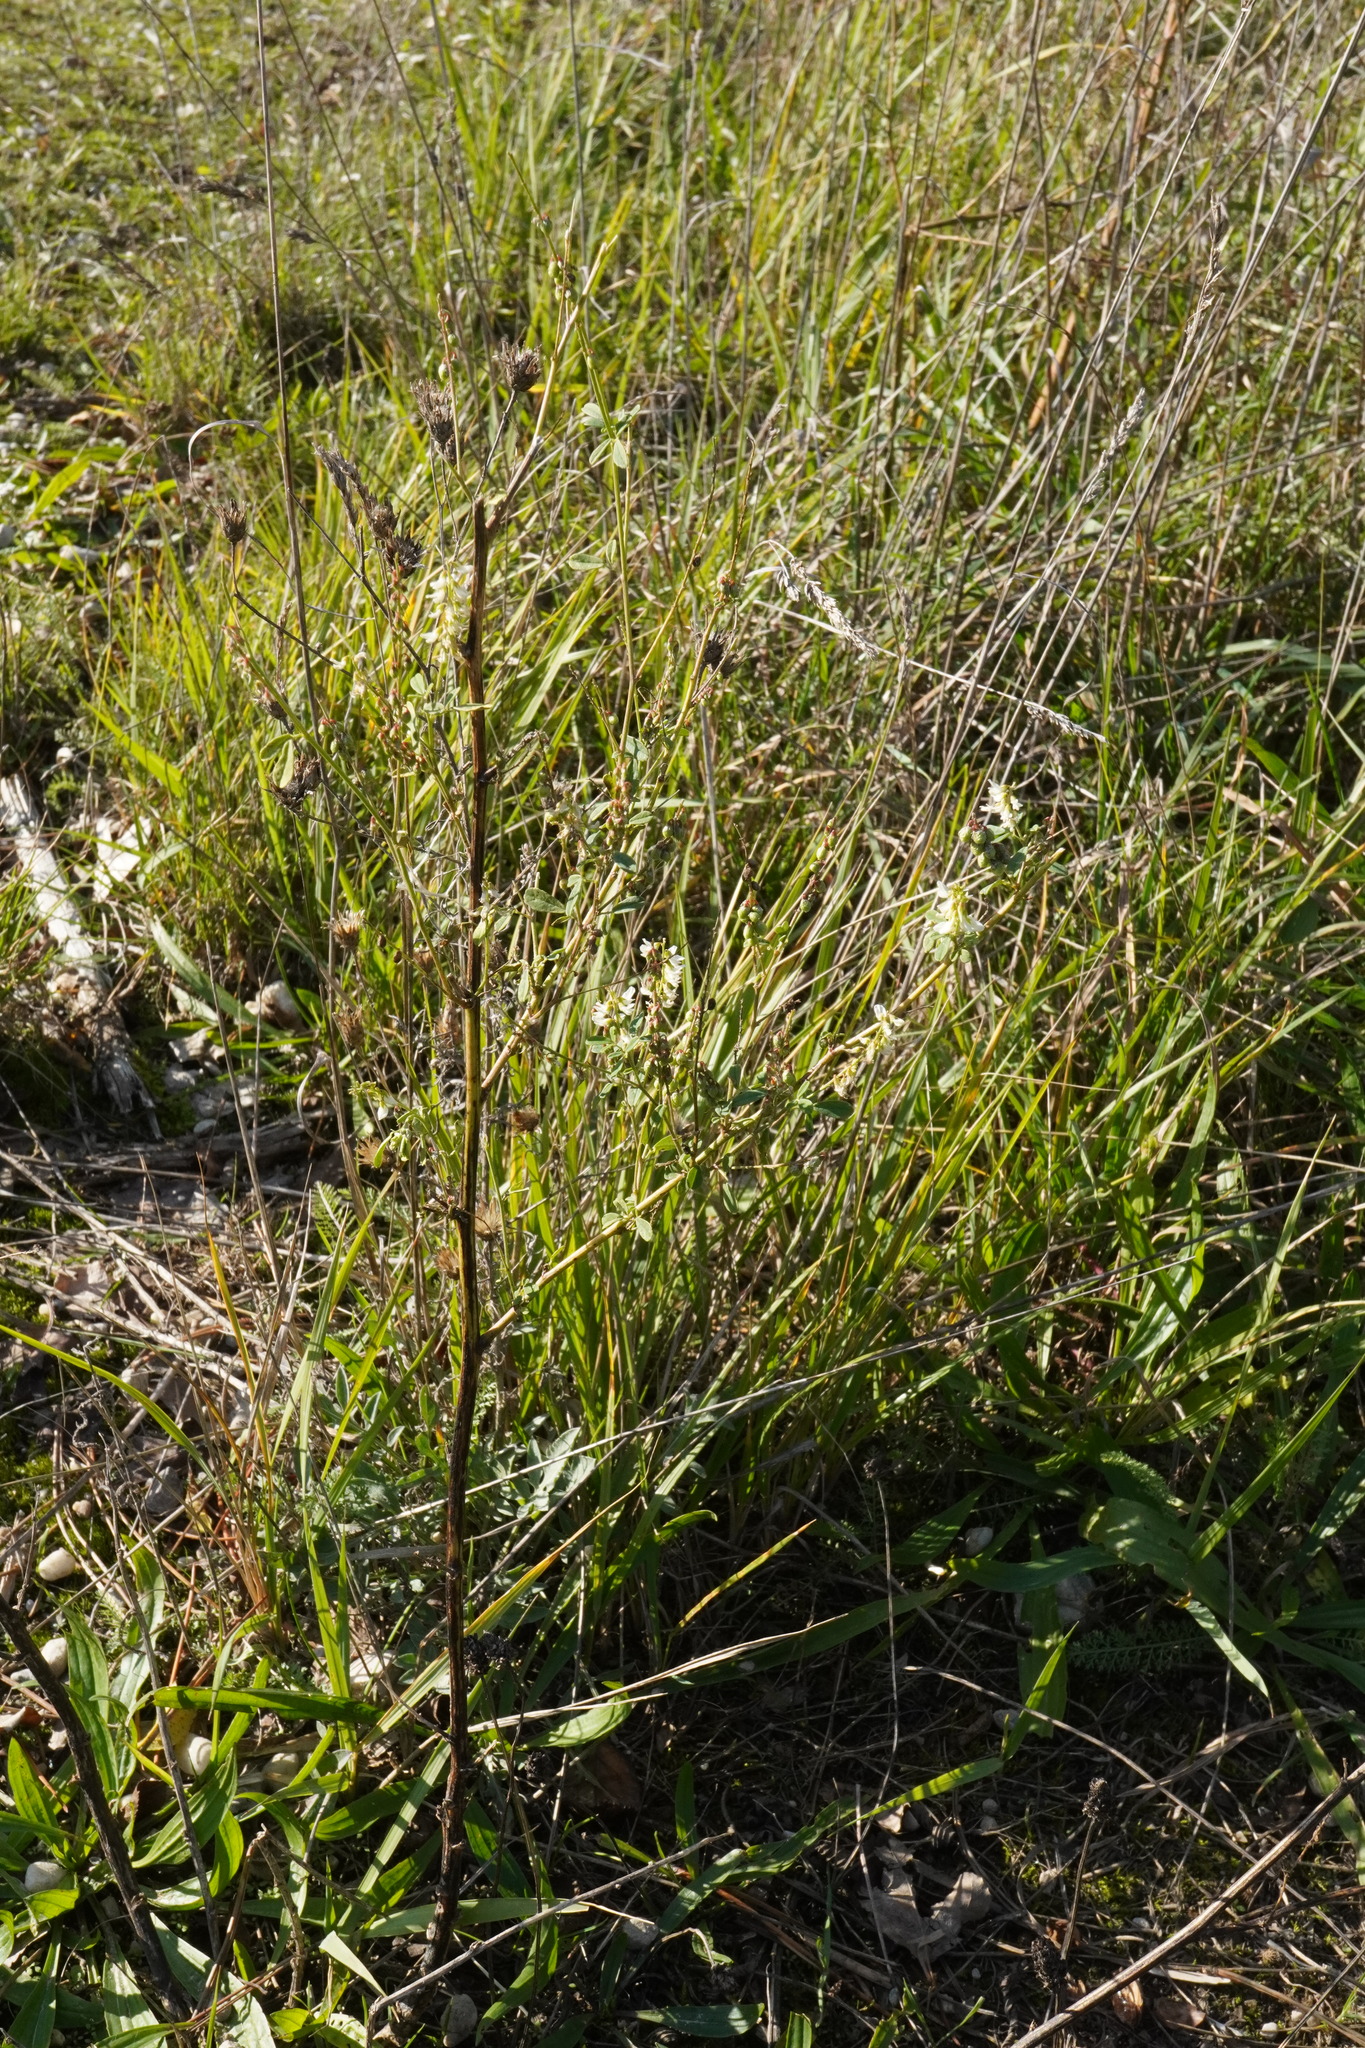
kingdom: Plantae
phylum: Tracheophyta
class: Magnoliopsida
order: Fabales
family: Fabaceae
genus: Melilotus
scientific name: Melilotus albus
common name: White melilot
